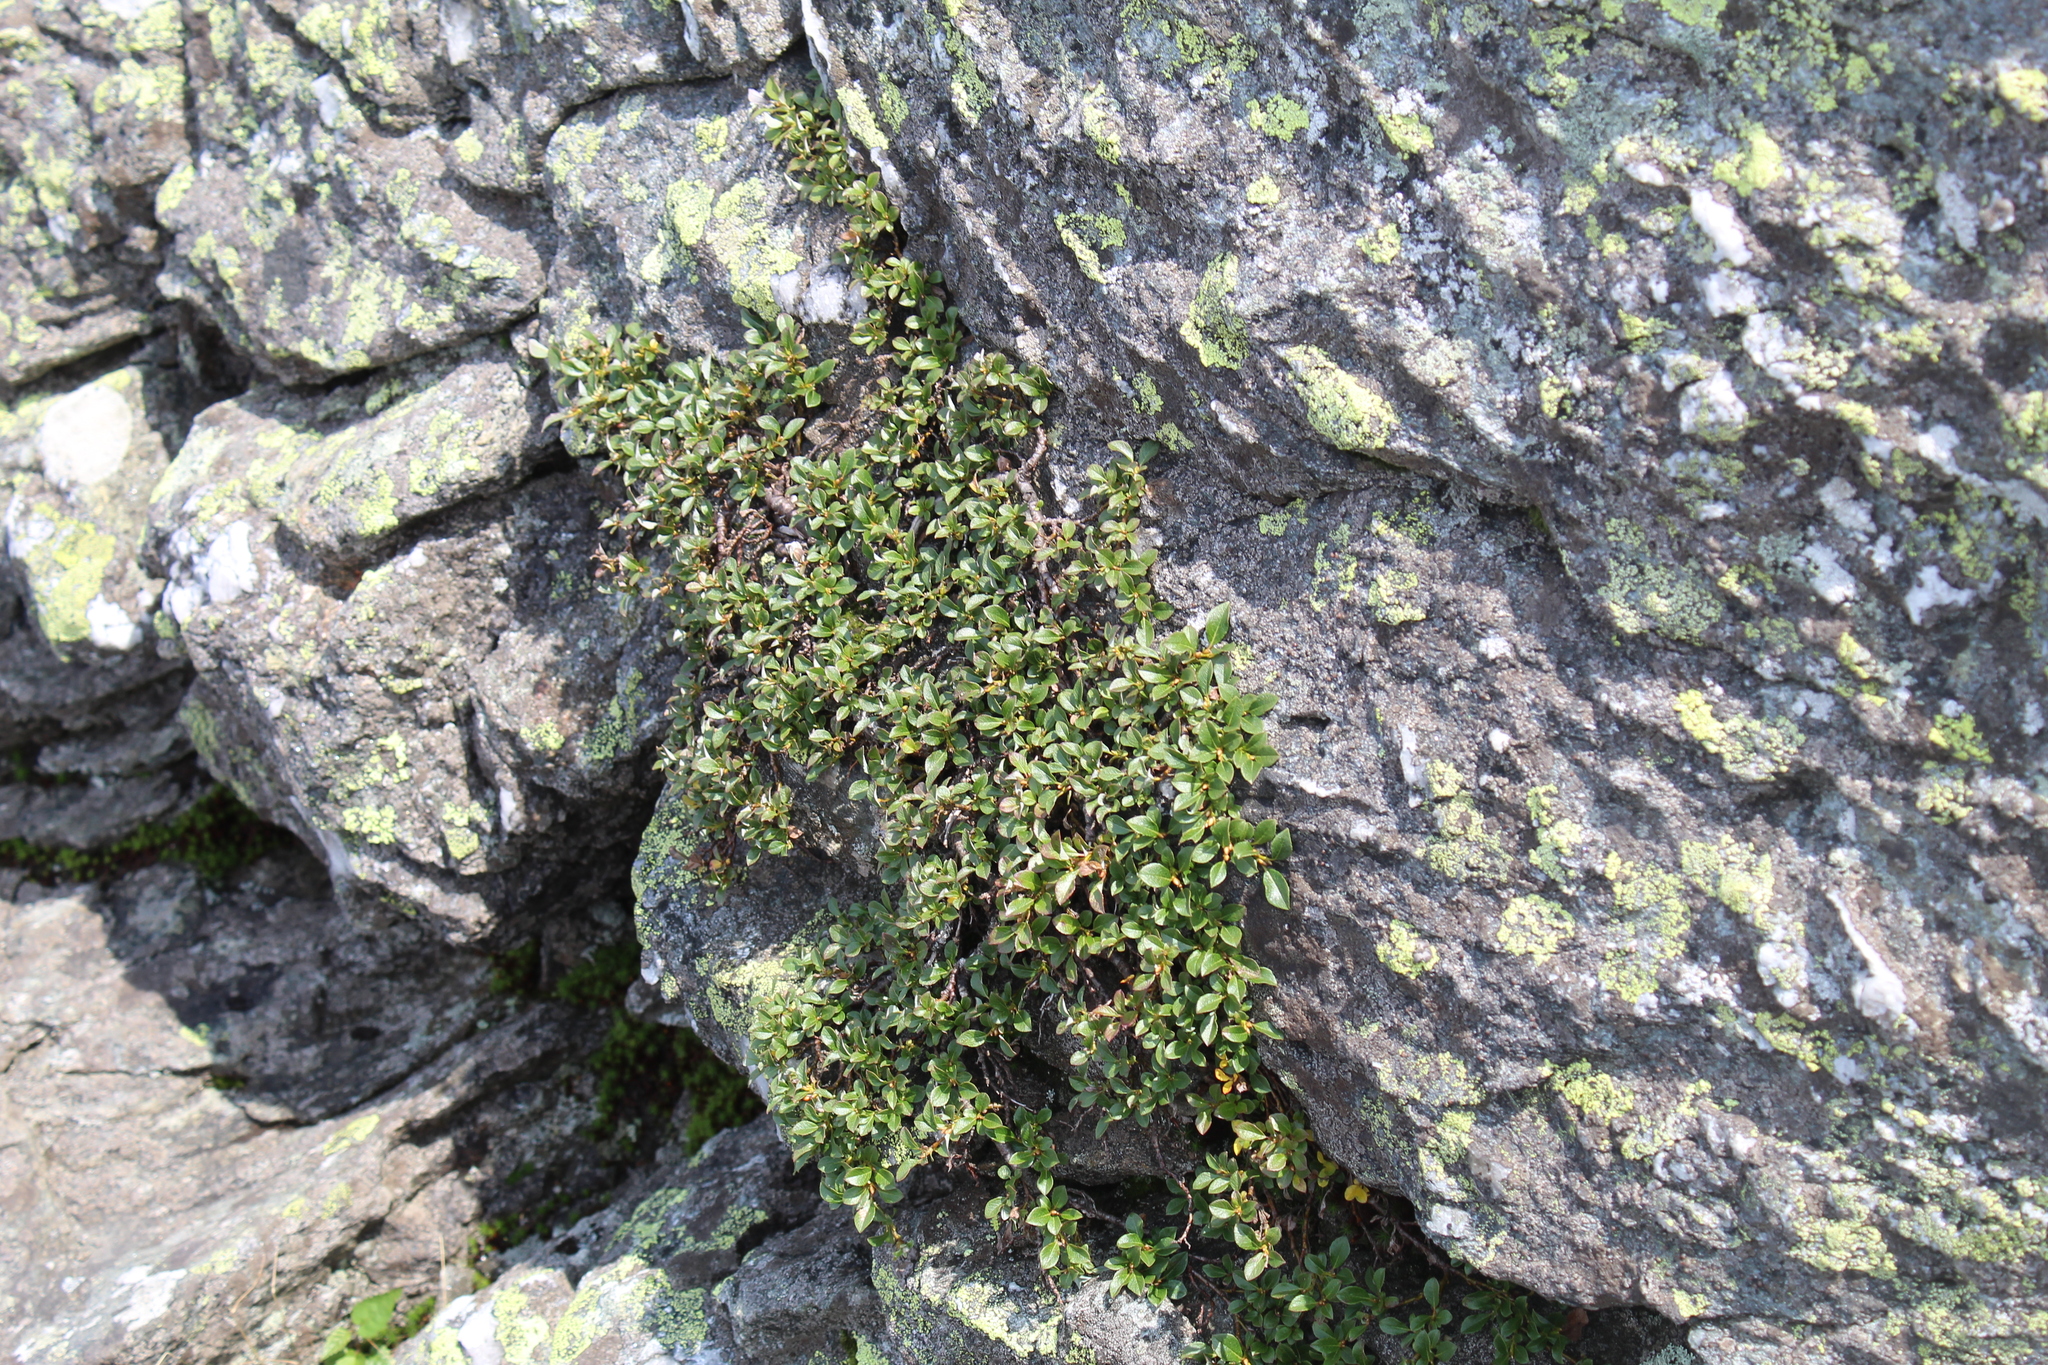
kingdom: Plantae
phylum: Tracheophyta
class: Magnoliopsida
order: Malpighiales
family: Salicaceae
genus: Salix
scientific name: Salix uva-ursi
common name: Bearberry willow
